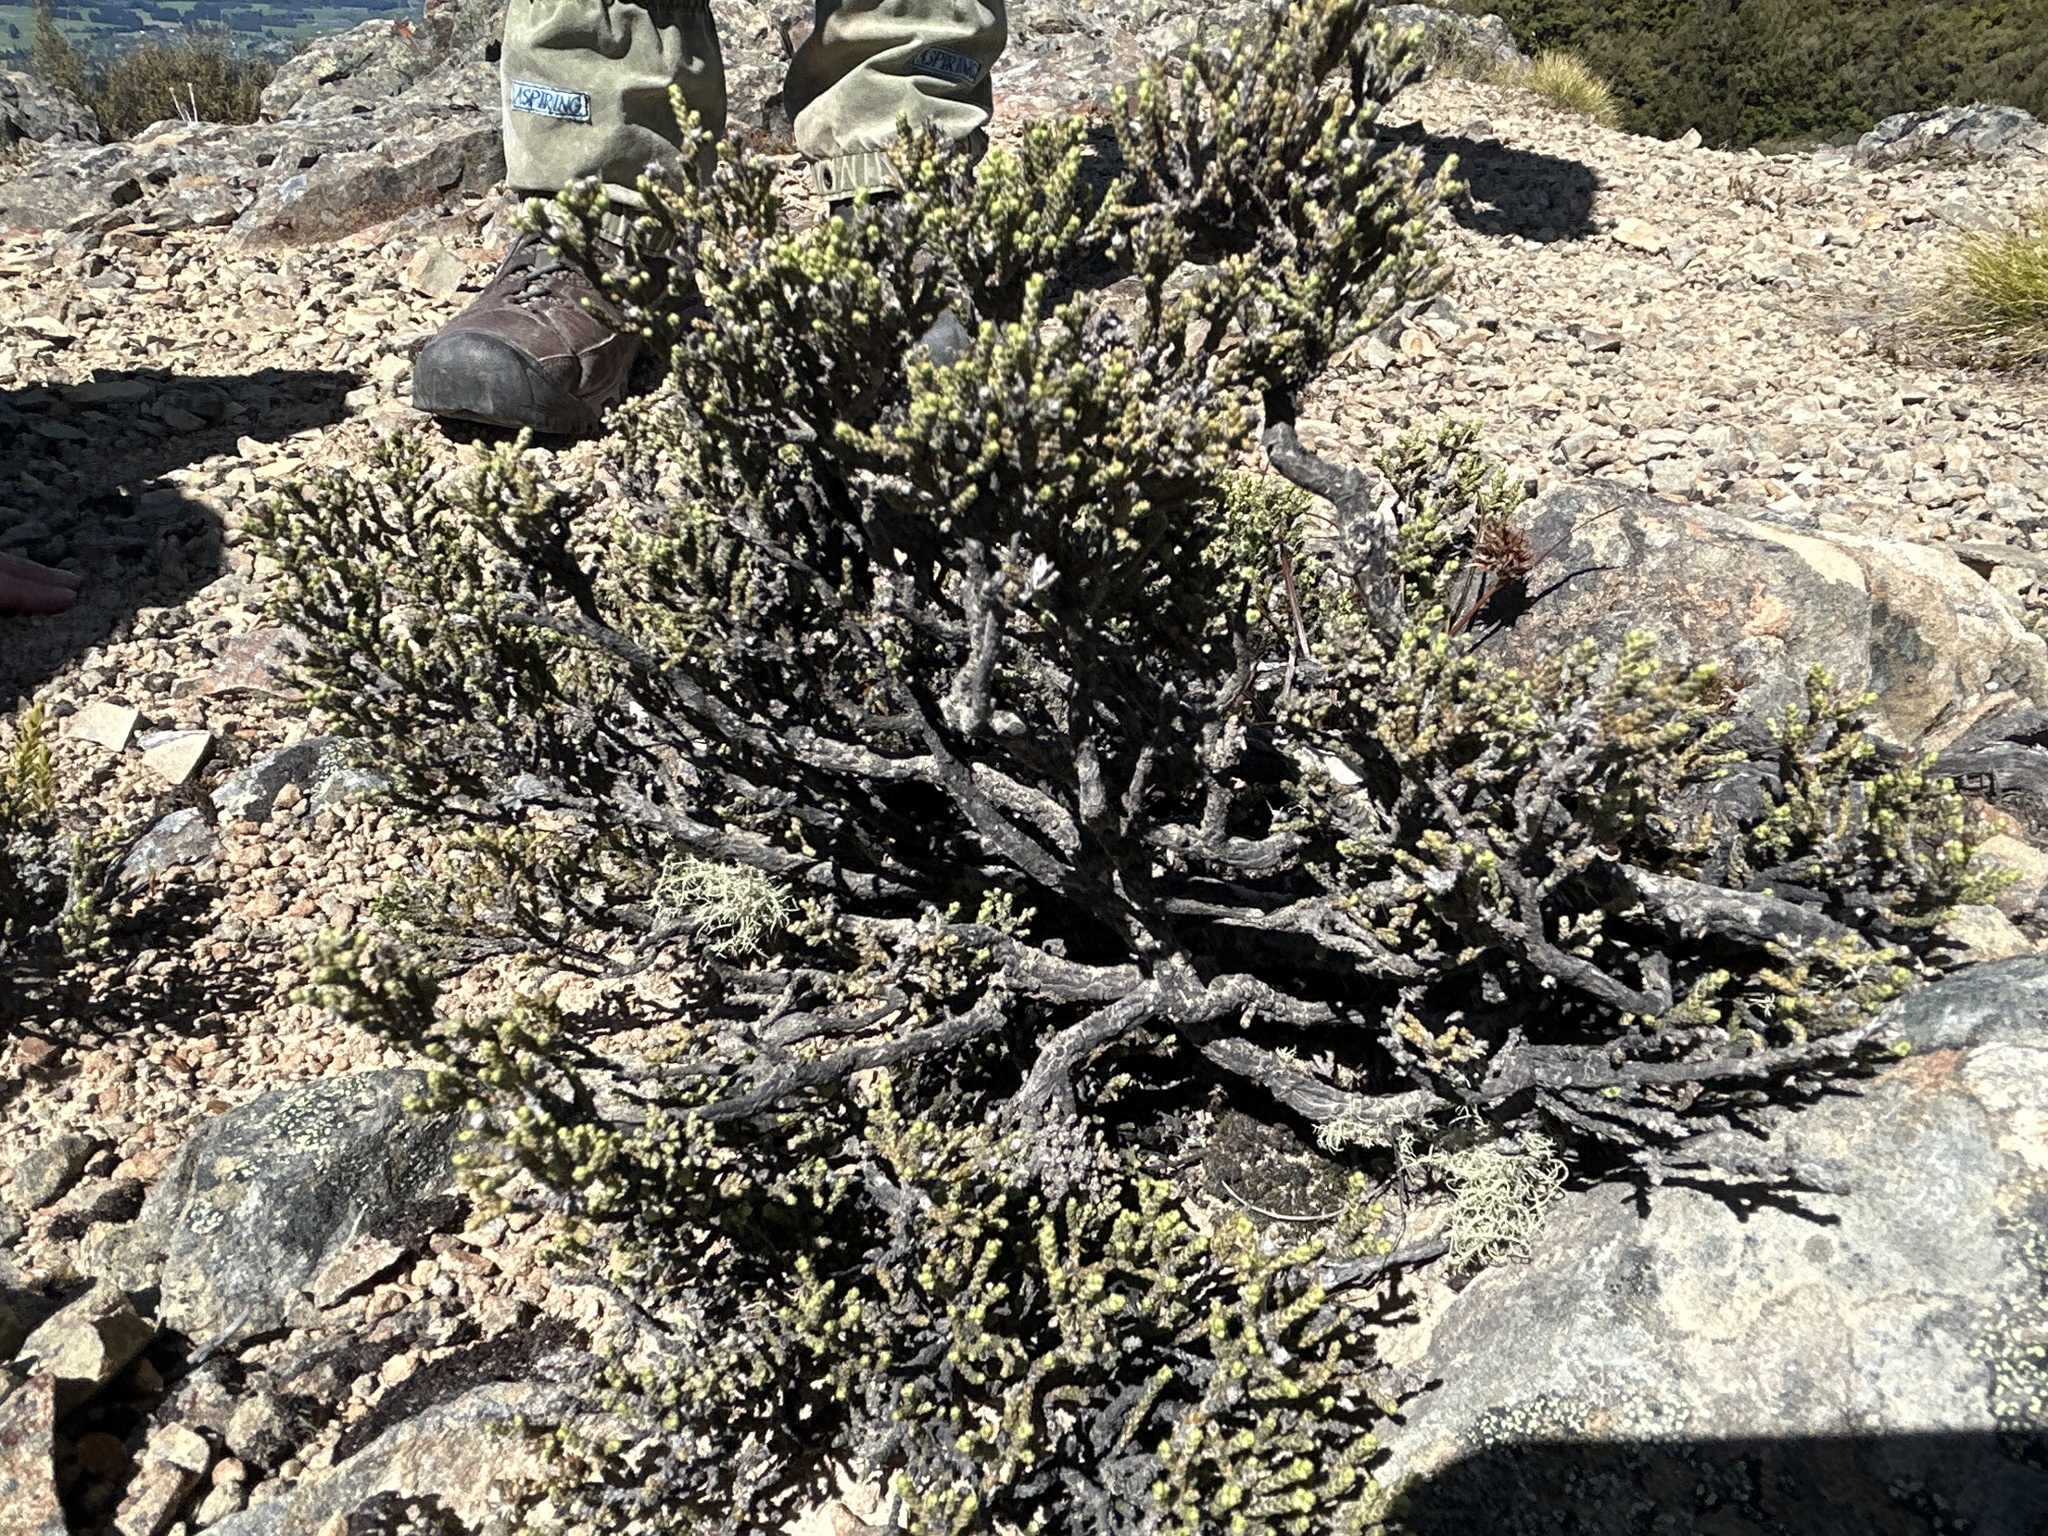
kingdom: Plantae
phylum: Tracheophyta
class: Magnoliopsida
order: Asterales
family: Asteraceae
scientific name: Asteraceae
